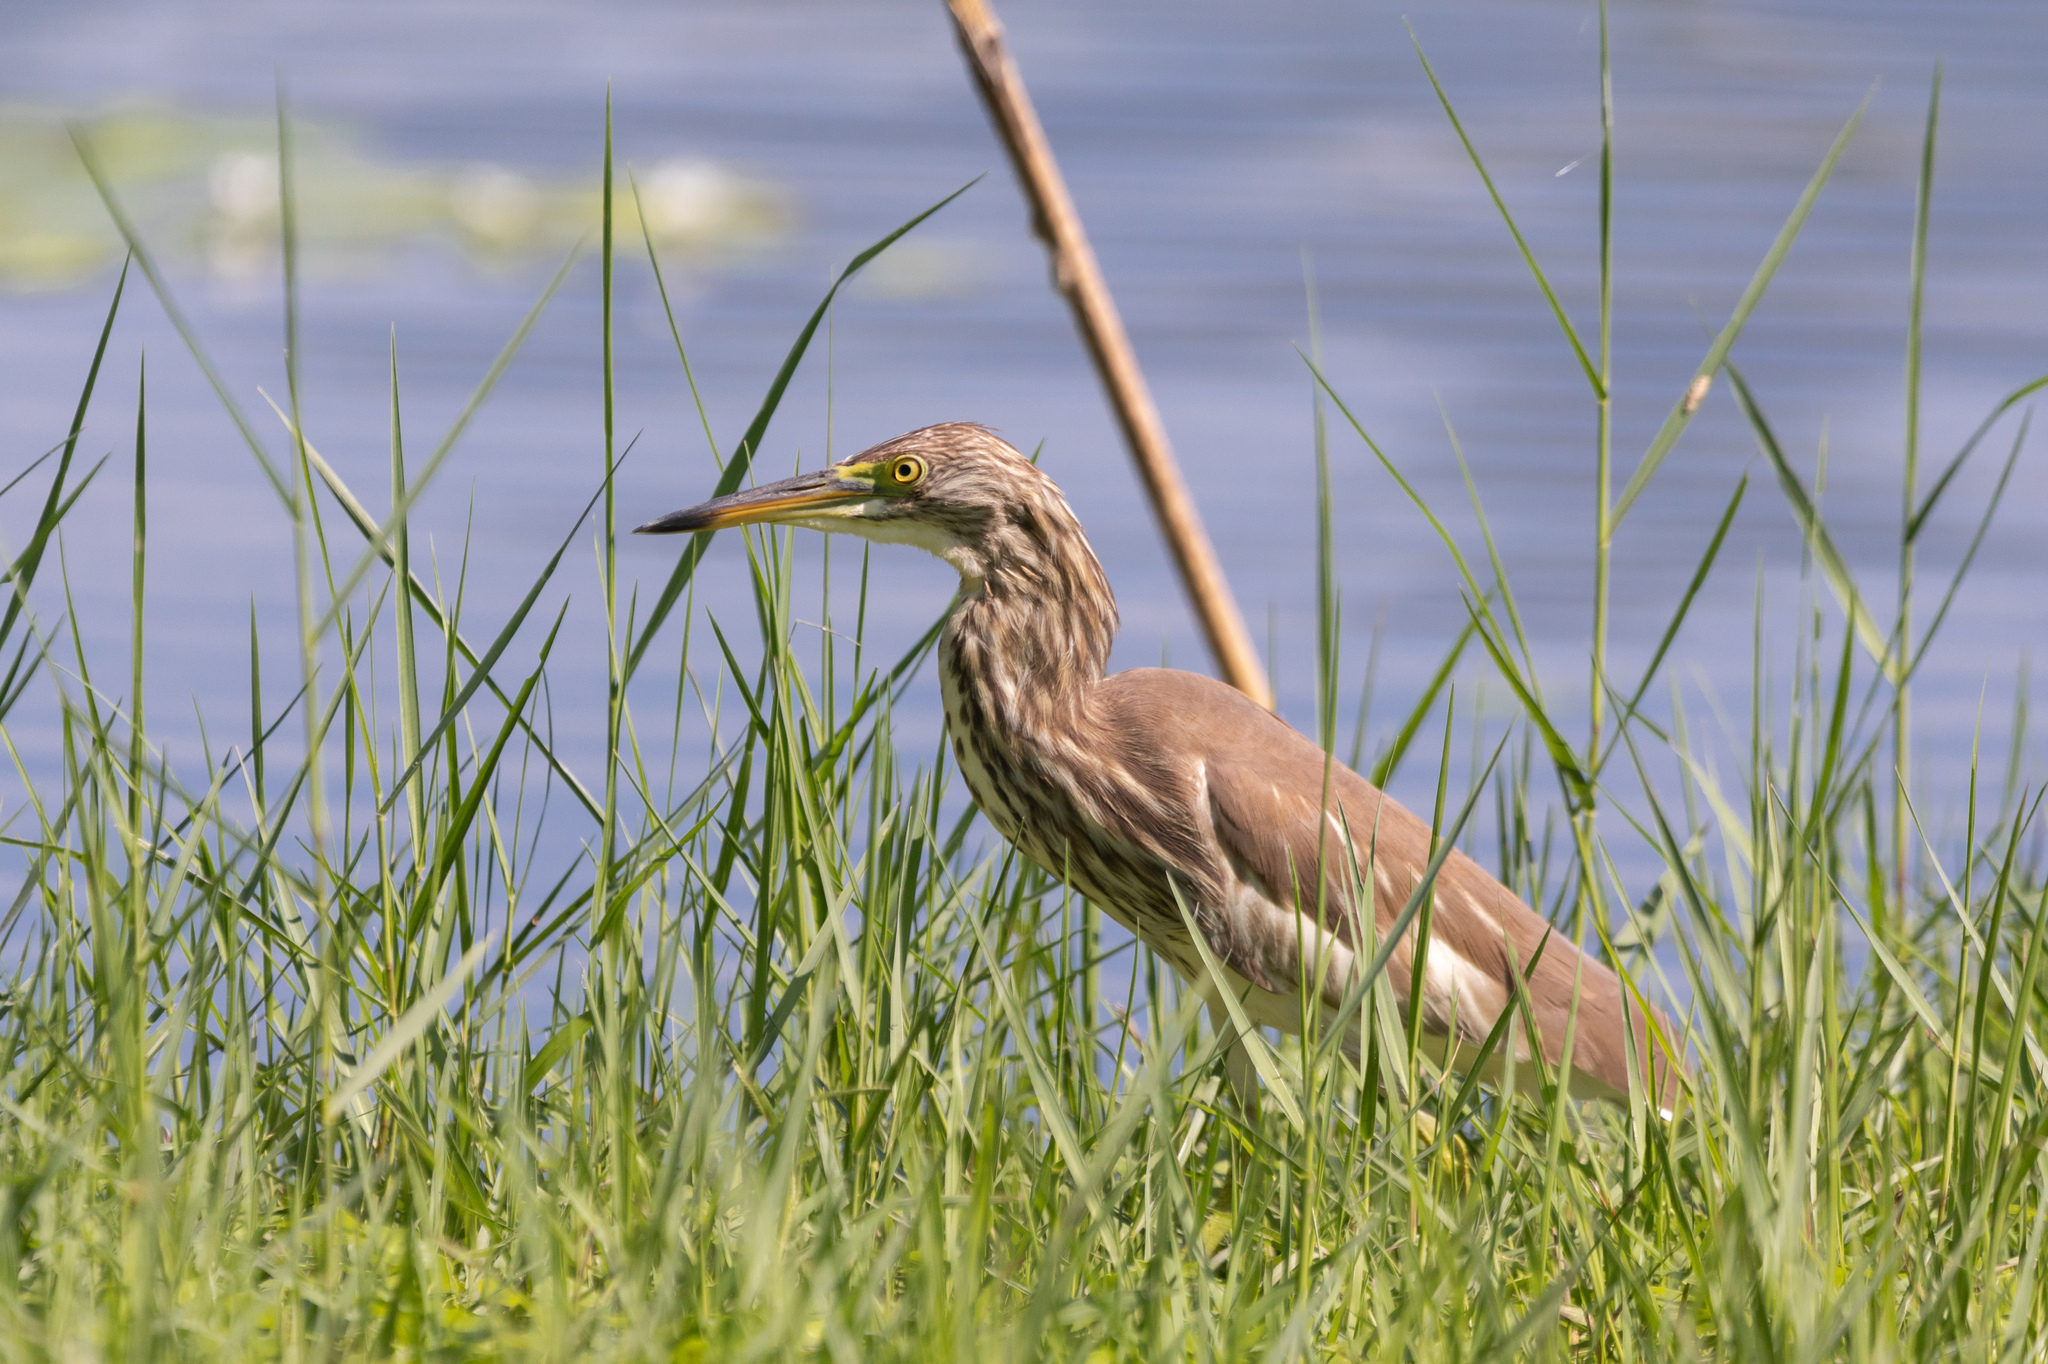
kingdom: Animalia
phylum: Chordata
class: Aves
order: Pelecaniformes
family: Ardeidae
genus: Ardeola
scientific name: Ardeola bacchus
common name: Chinese pond heron
